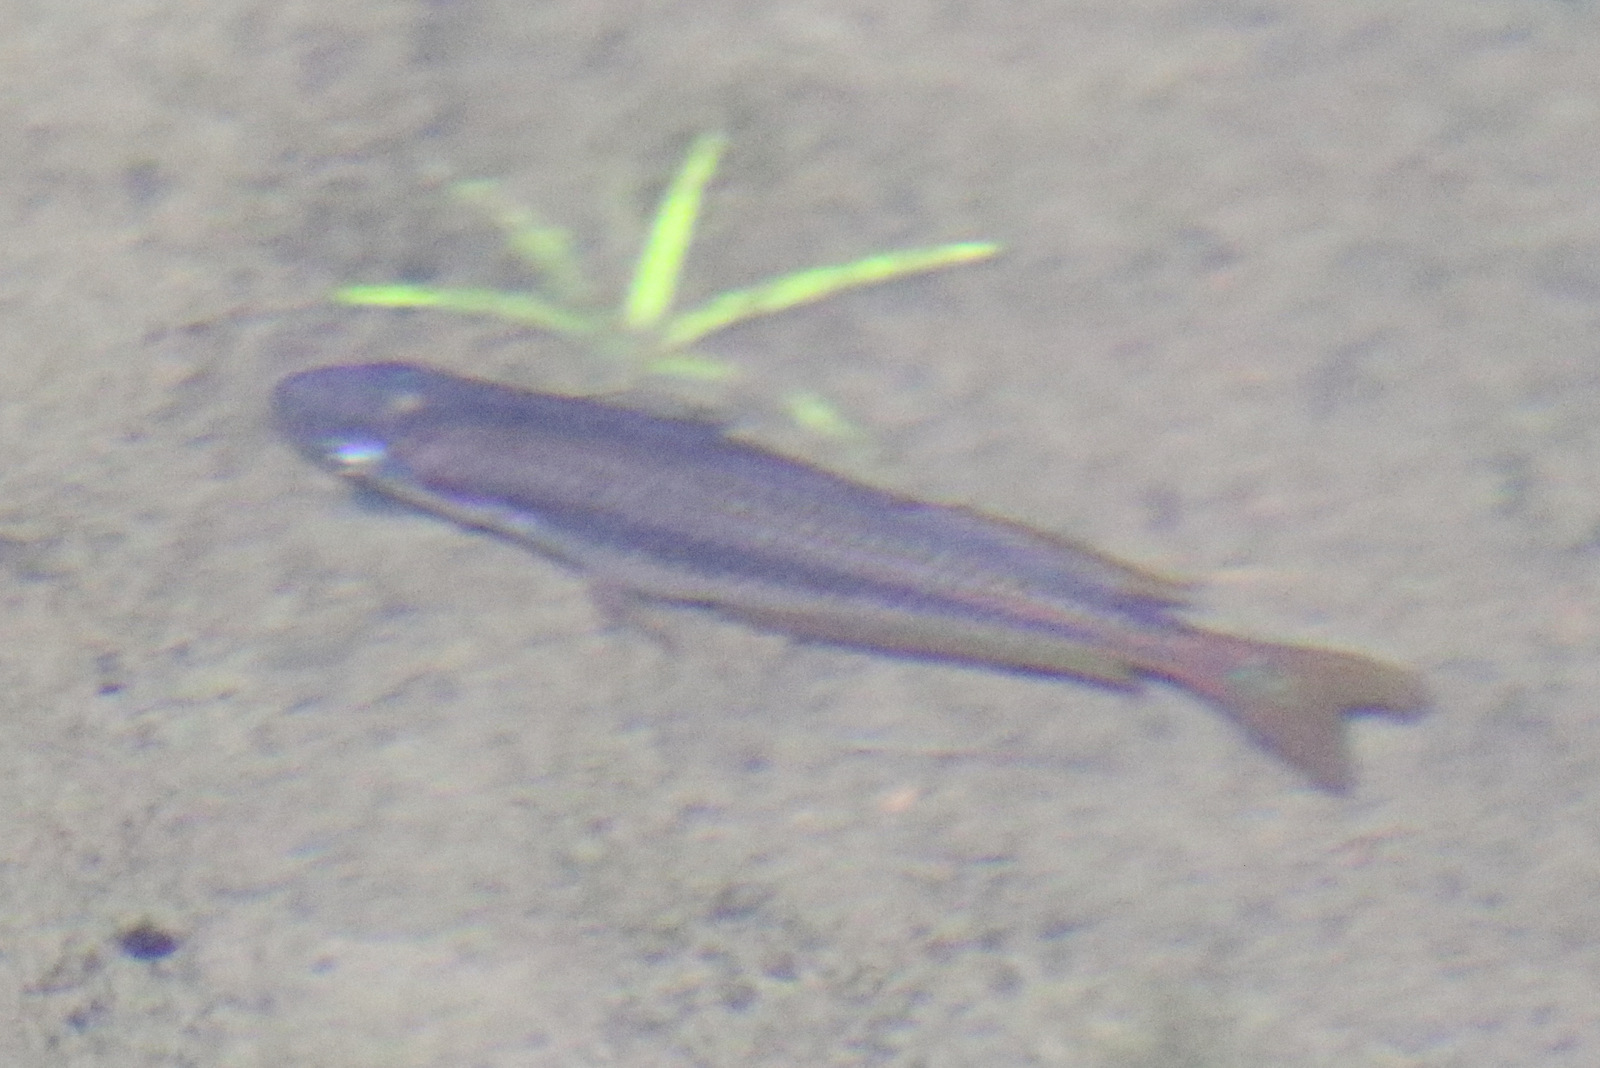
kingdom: Animalia
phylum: Chordata
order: Atheriniformes
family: Melanotaeniidae
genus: Melanotaenia
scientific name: Melanotaenia australis
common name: Western rainbowfish
